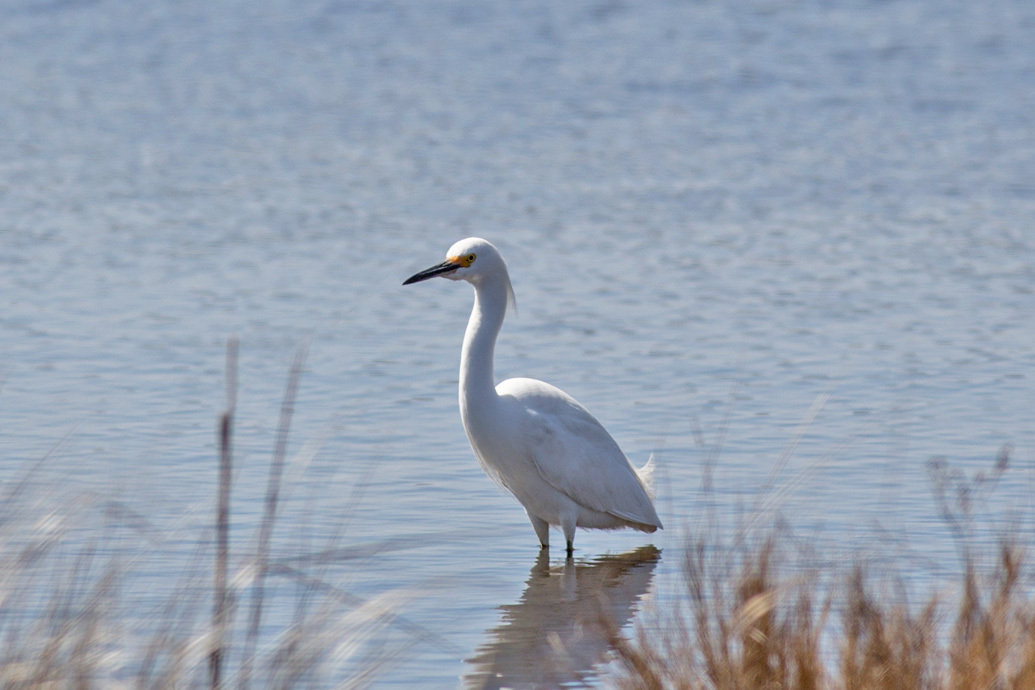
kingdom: Animalia
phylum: Chordata
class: Aves
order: Pelecaniformes
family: Ardeidae
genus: Egretta
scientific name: Egretta thula
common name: Snowy egret
